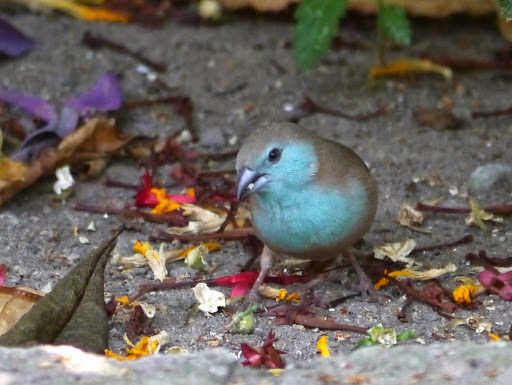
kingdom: Animalia
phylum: Chordata
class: Aves
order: Passeriformes
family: Estrildidae
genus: Uraeginthus
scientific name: Uraeginthus angolensis
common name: Blue waxbill
